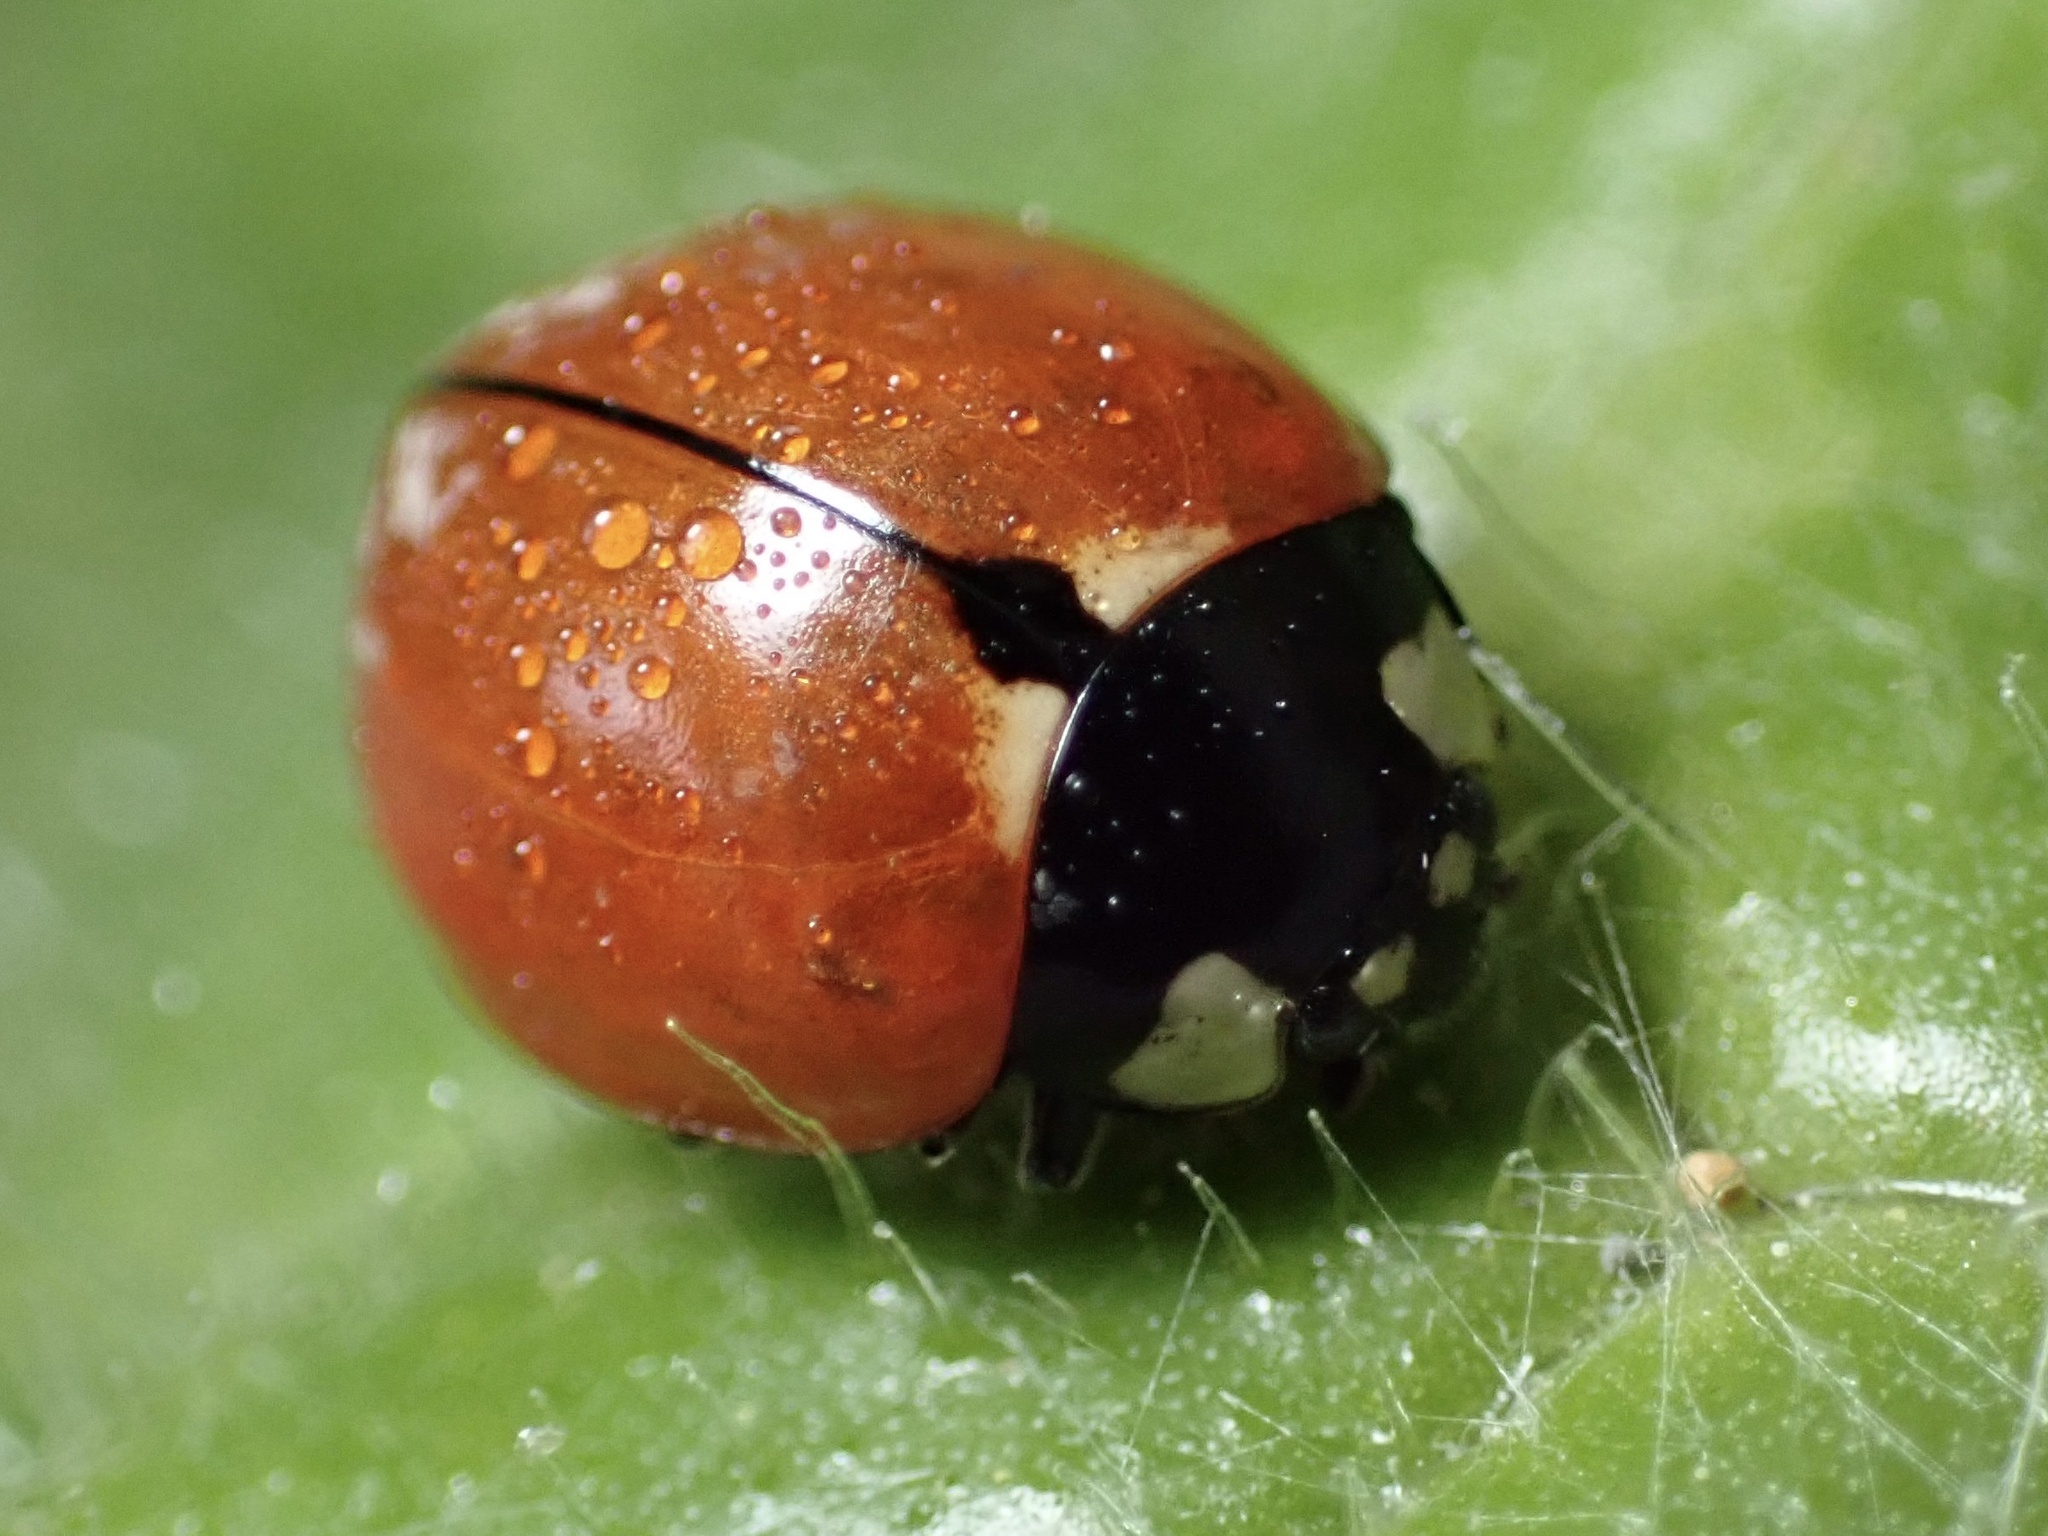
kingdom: Animalia
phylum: Arthropoda
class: Insecta
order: Coleoptera
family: Coccinellidae
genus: Coccinella
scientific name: Coccinella californica
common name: Lady beetle
